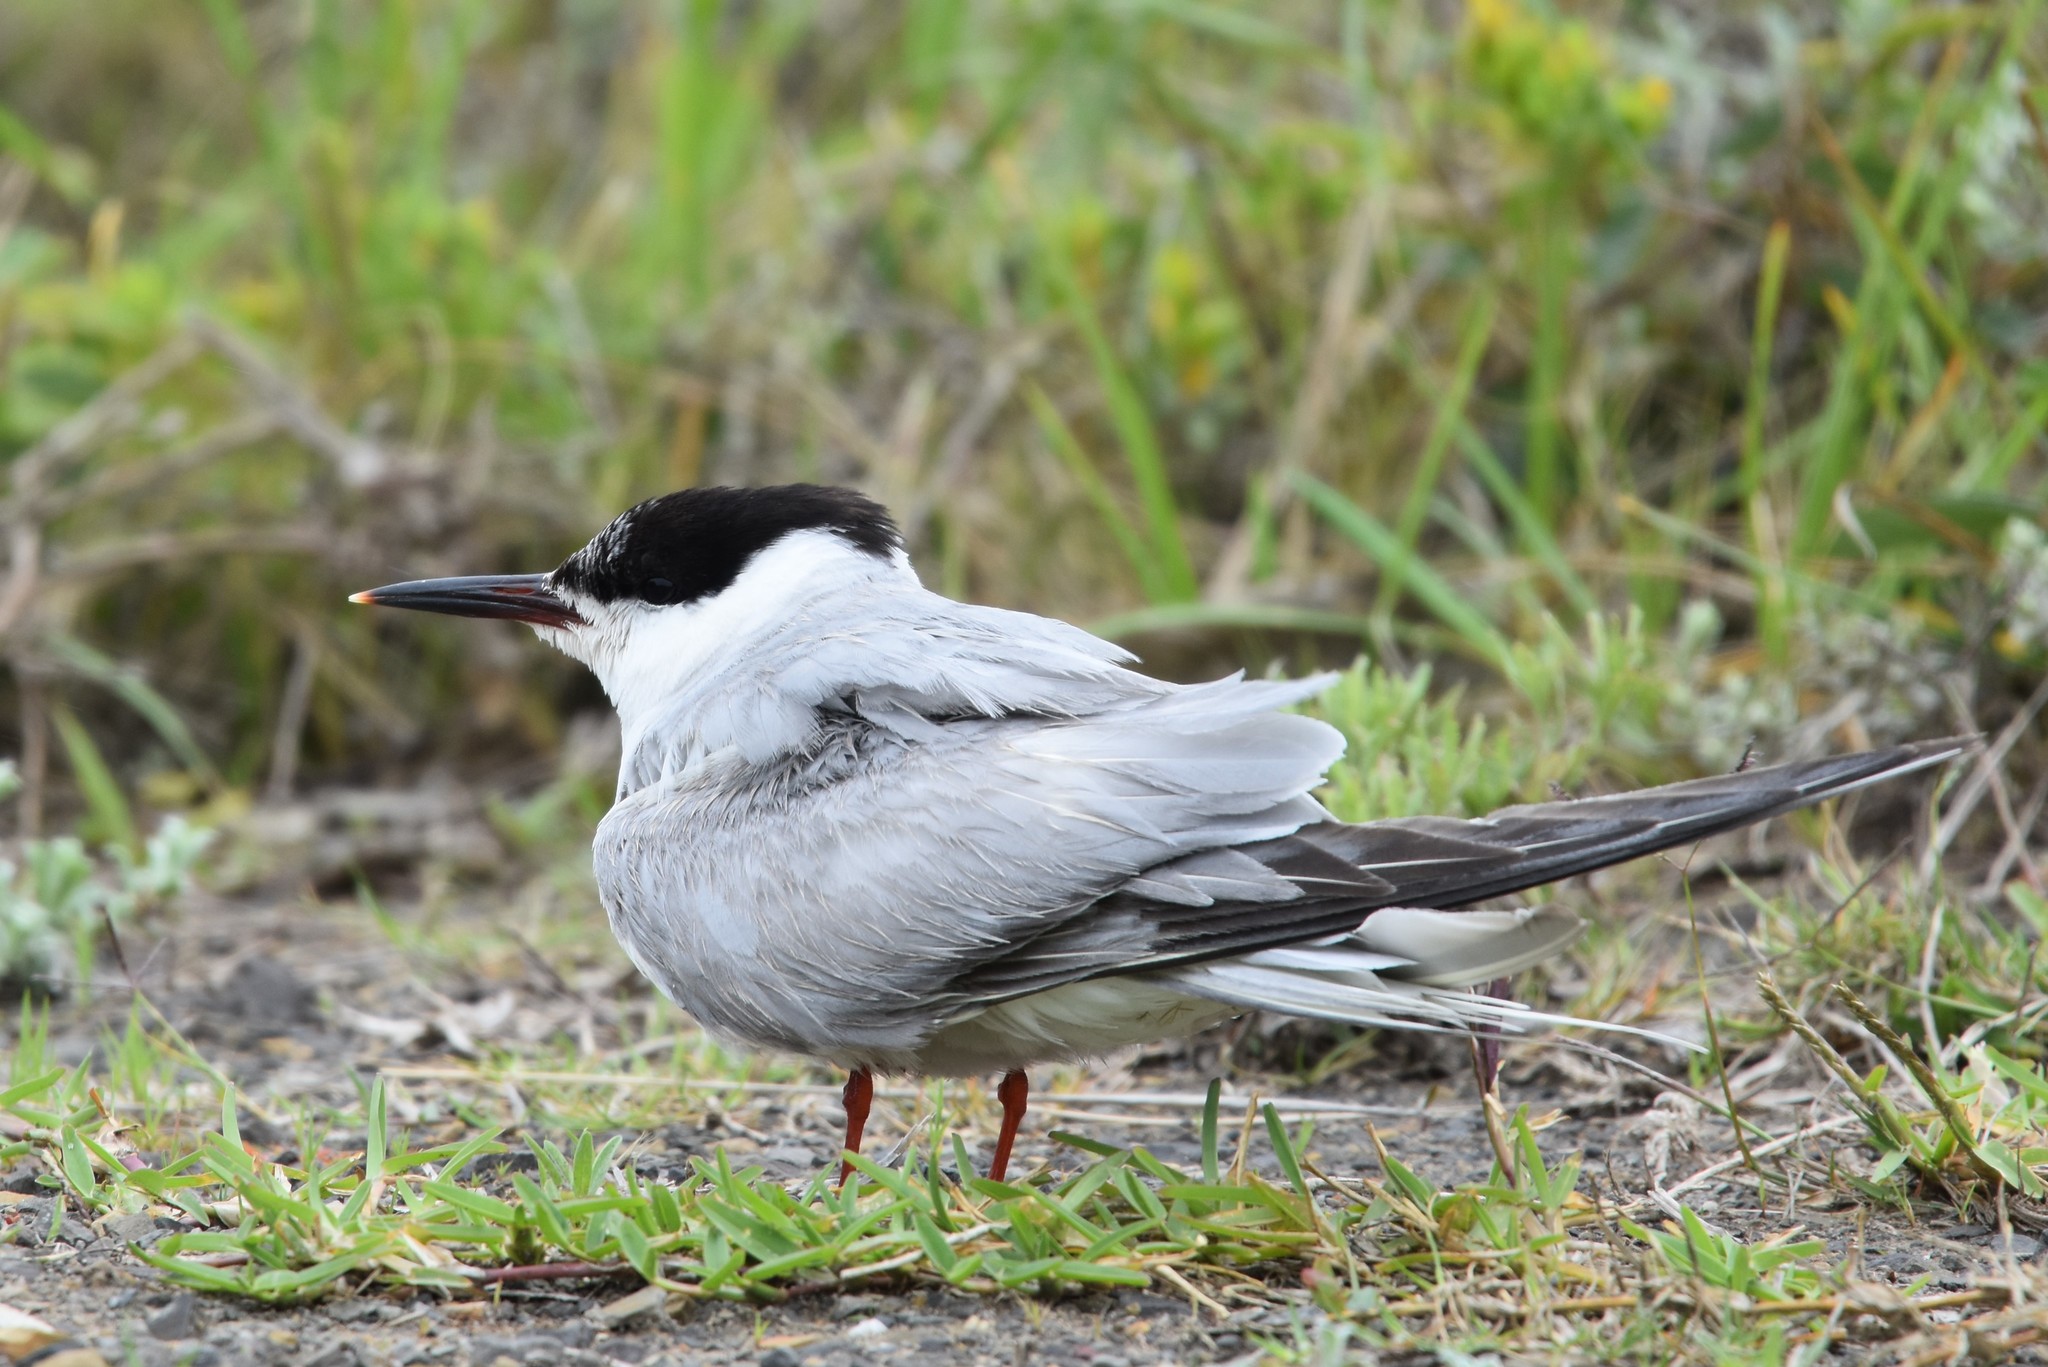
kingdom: Animalia
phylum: Chordata
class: Aves
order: Charadriiformes
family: Laridae
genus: Sterna
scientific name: Sterna hirundo
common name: Common tern
